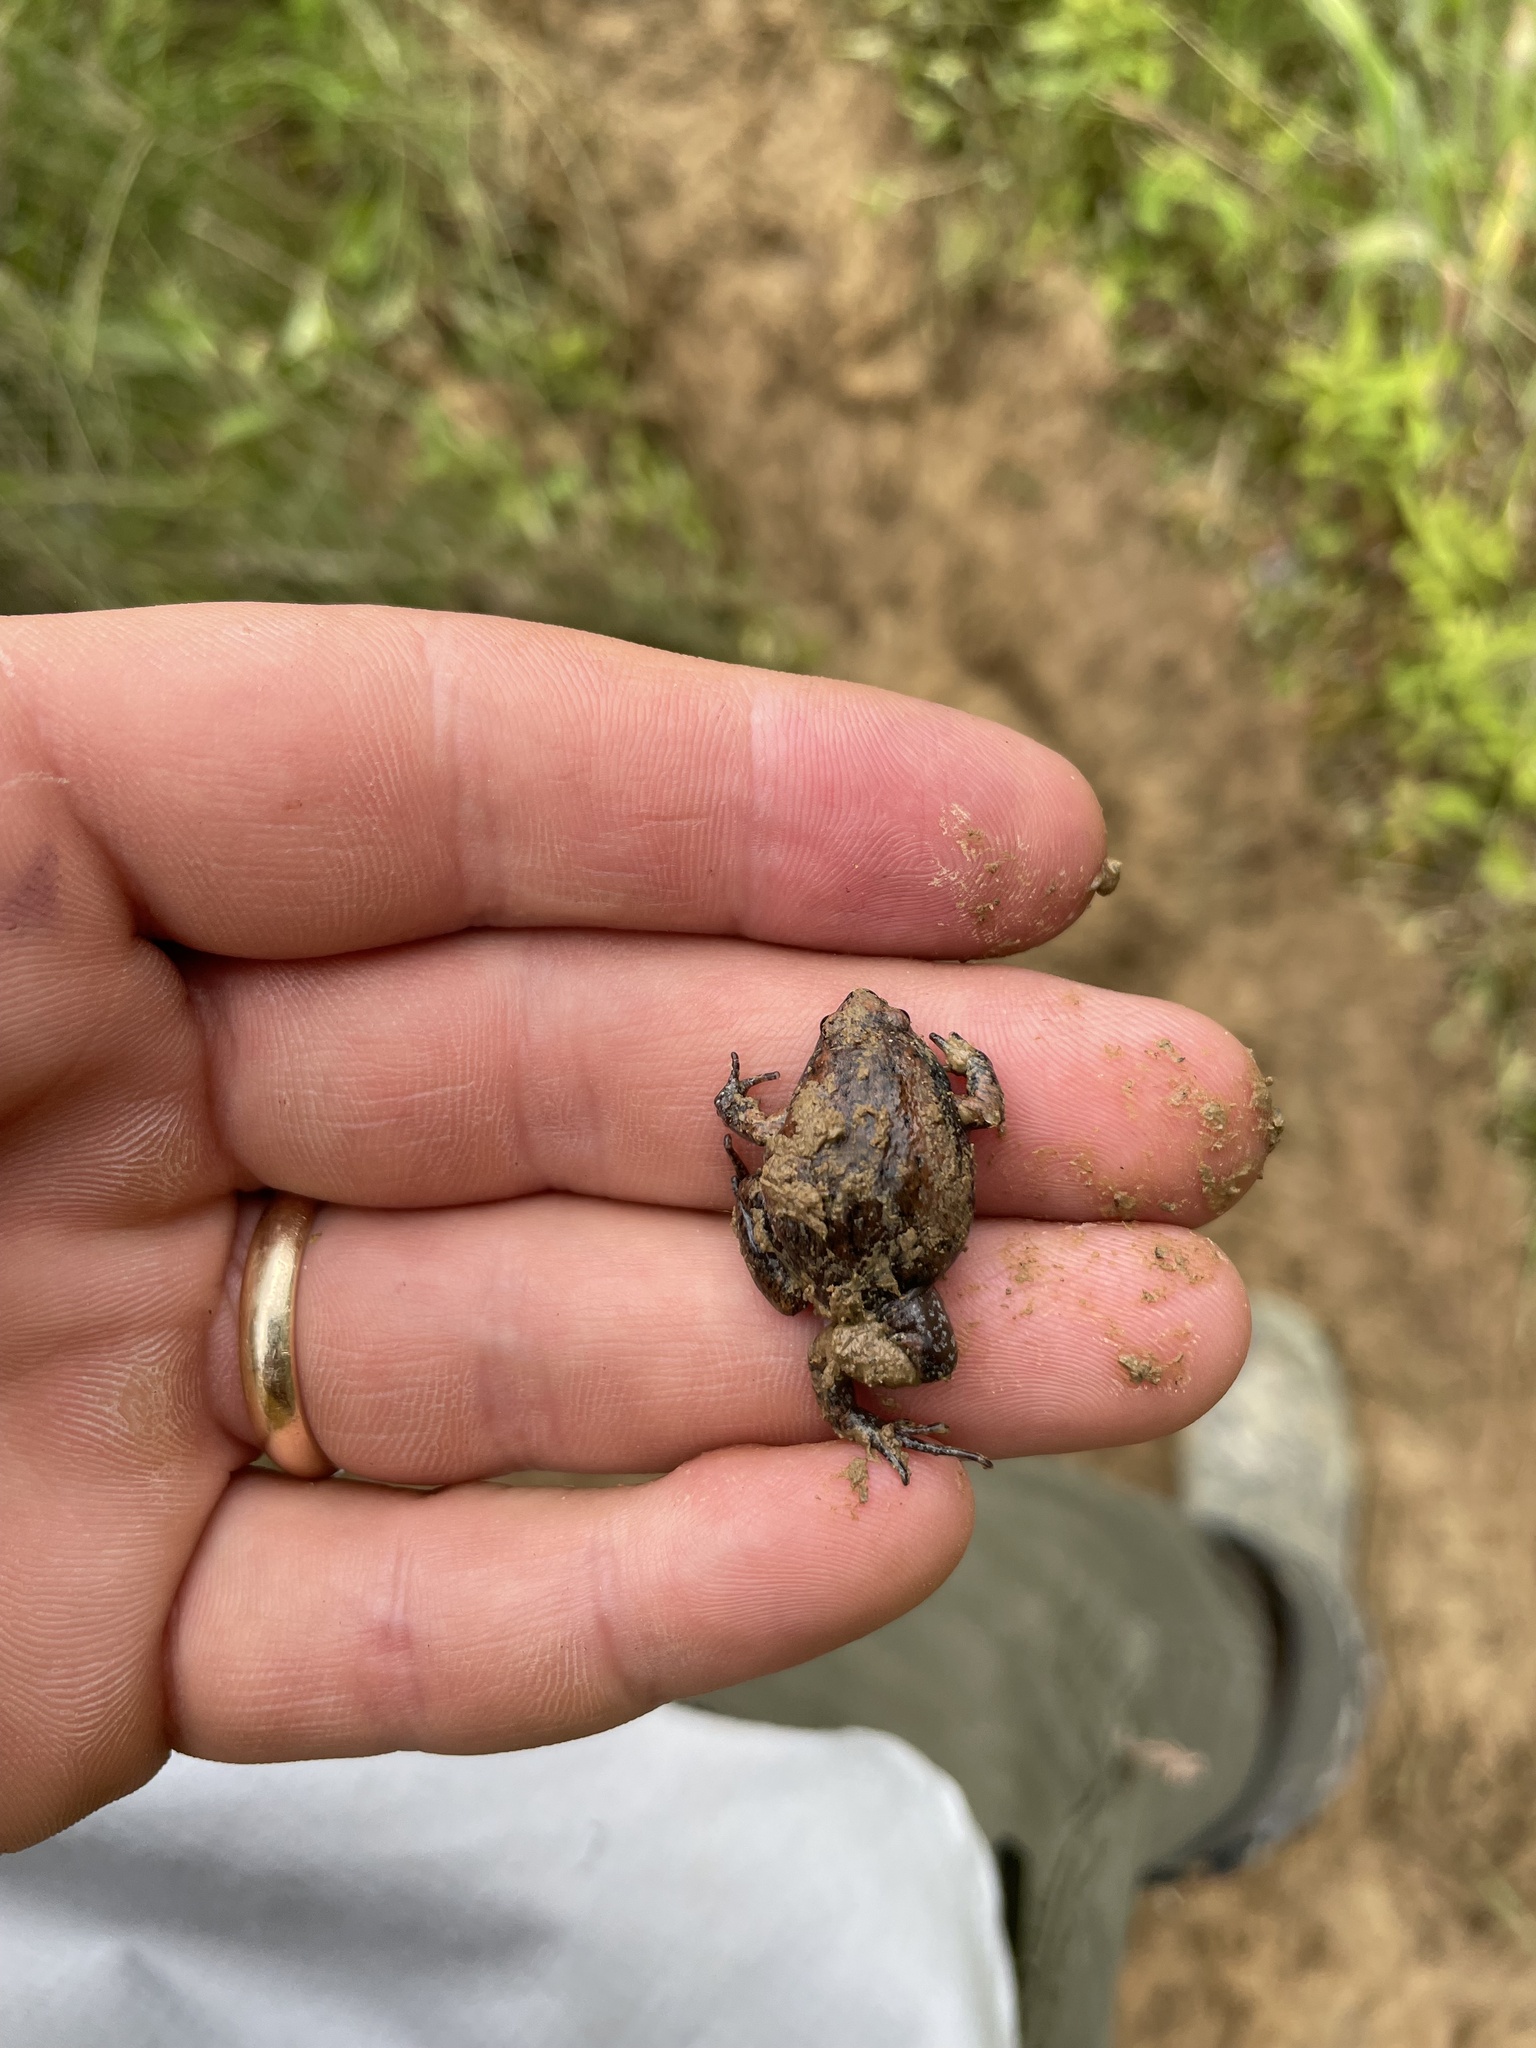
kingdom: Animalia
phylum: Chordata
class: Amphibia
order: Anura
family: Microhylidae
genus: Gastrophryne
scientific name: Gastrophryne carolinensis
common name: Eastern narrowmouth toad
